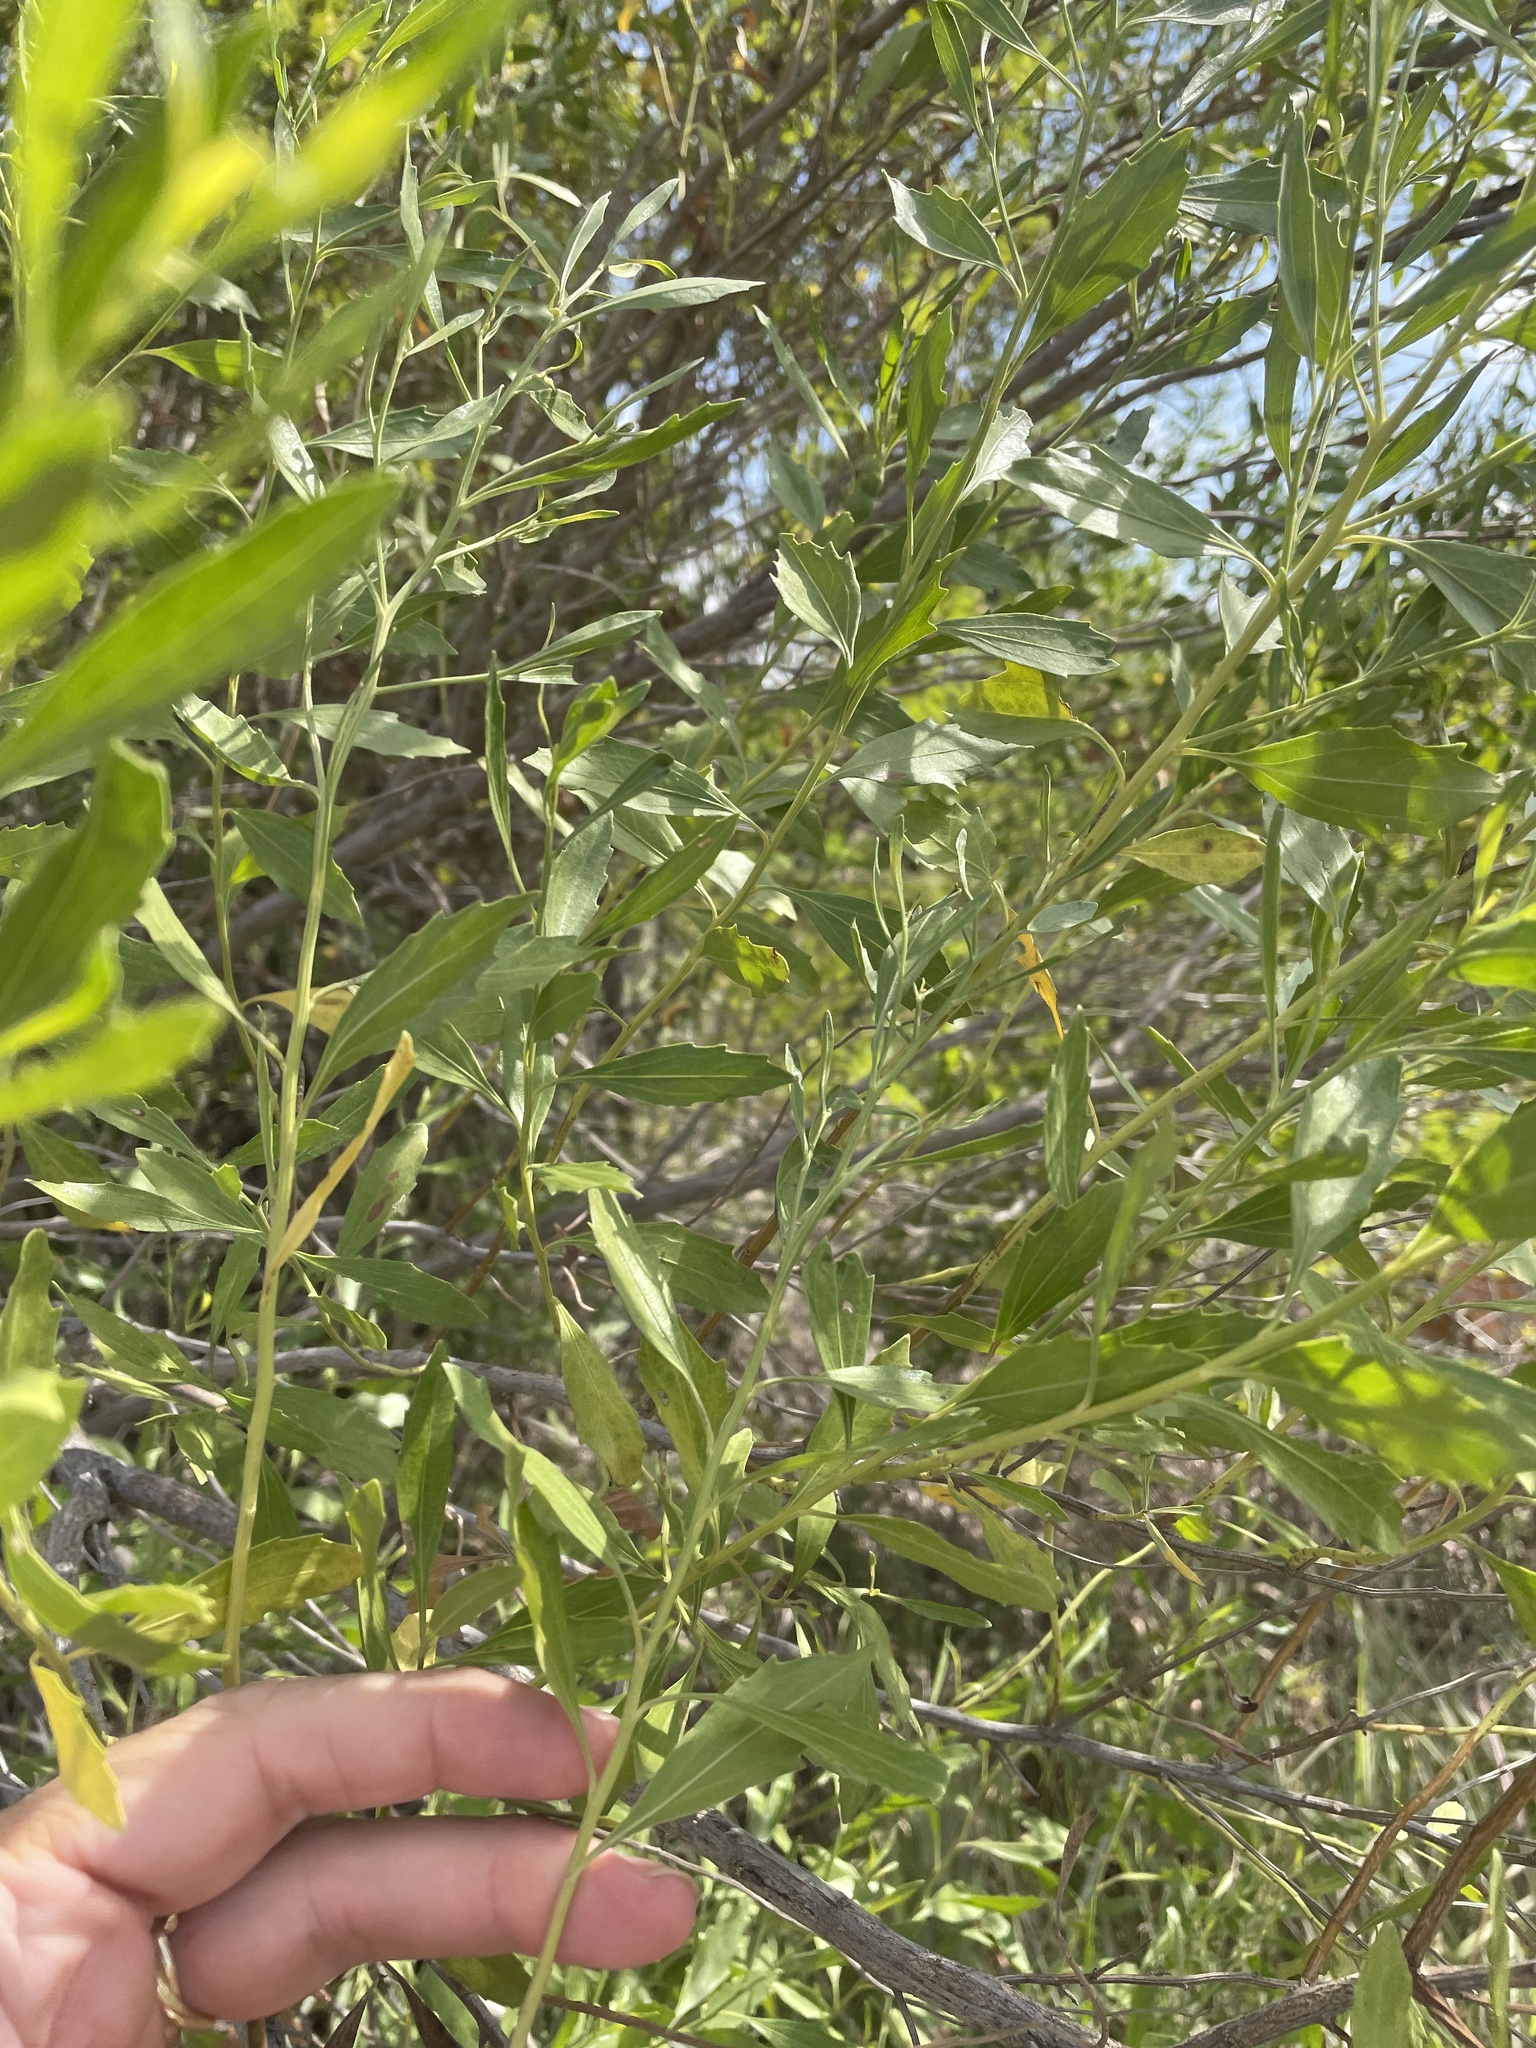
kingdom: Plantae
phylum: Tracheophyta
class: Magnoliopsida
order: Asterales
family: Asteraceae
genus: Baccharis
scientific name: Baccharis halimifolia
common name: Eastern baccharis
